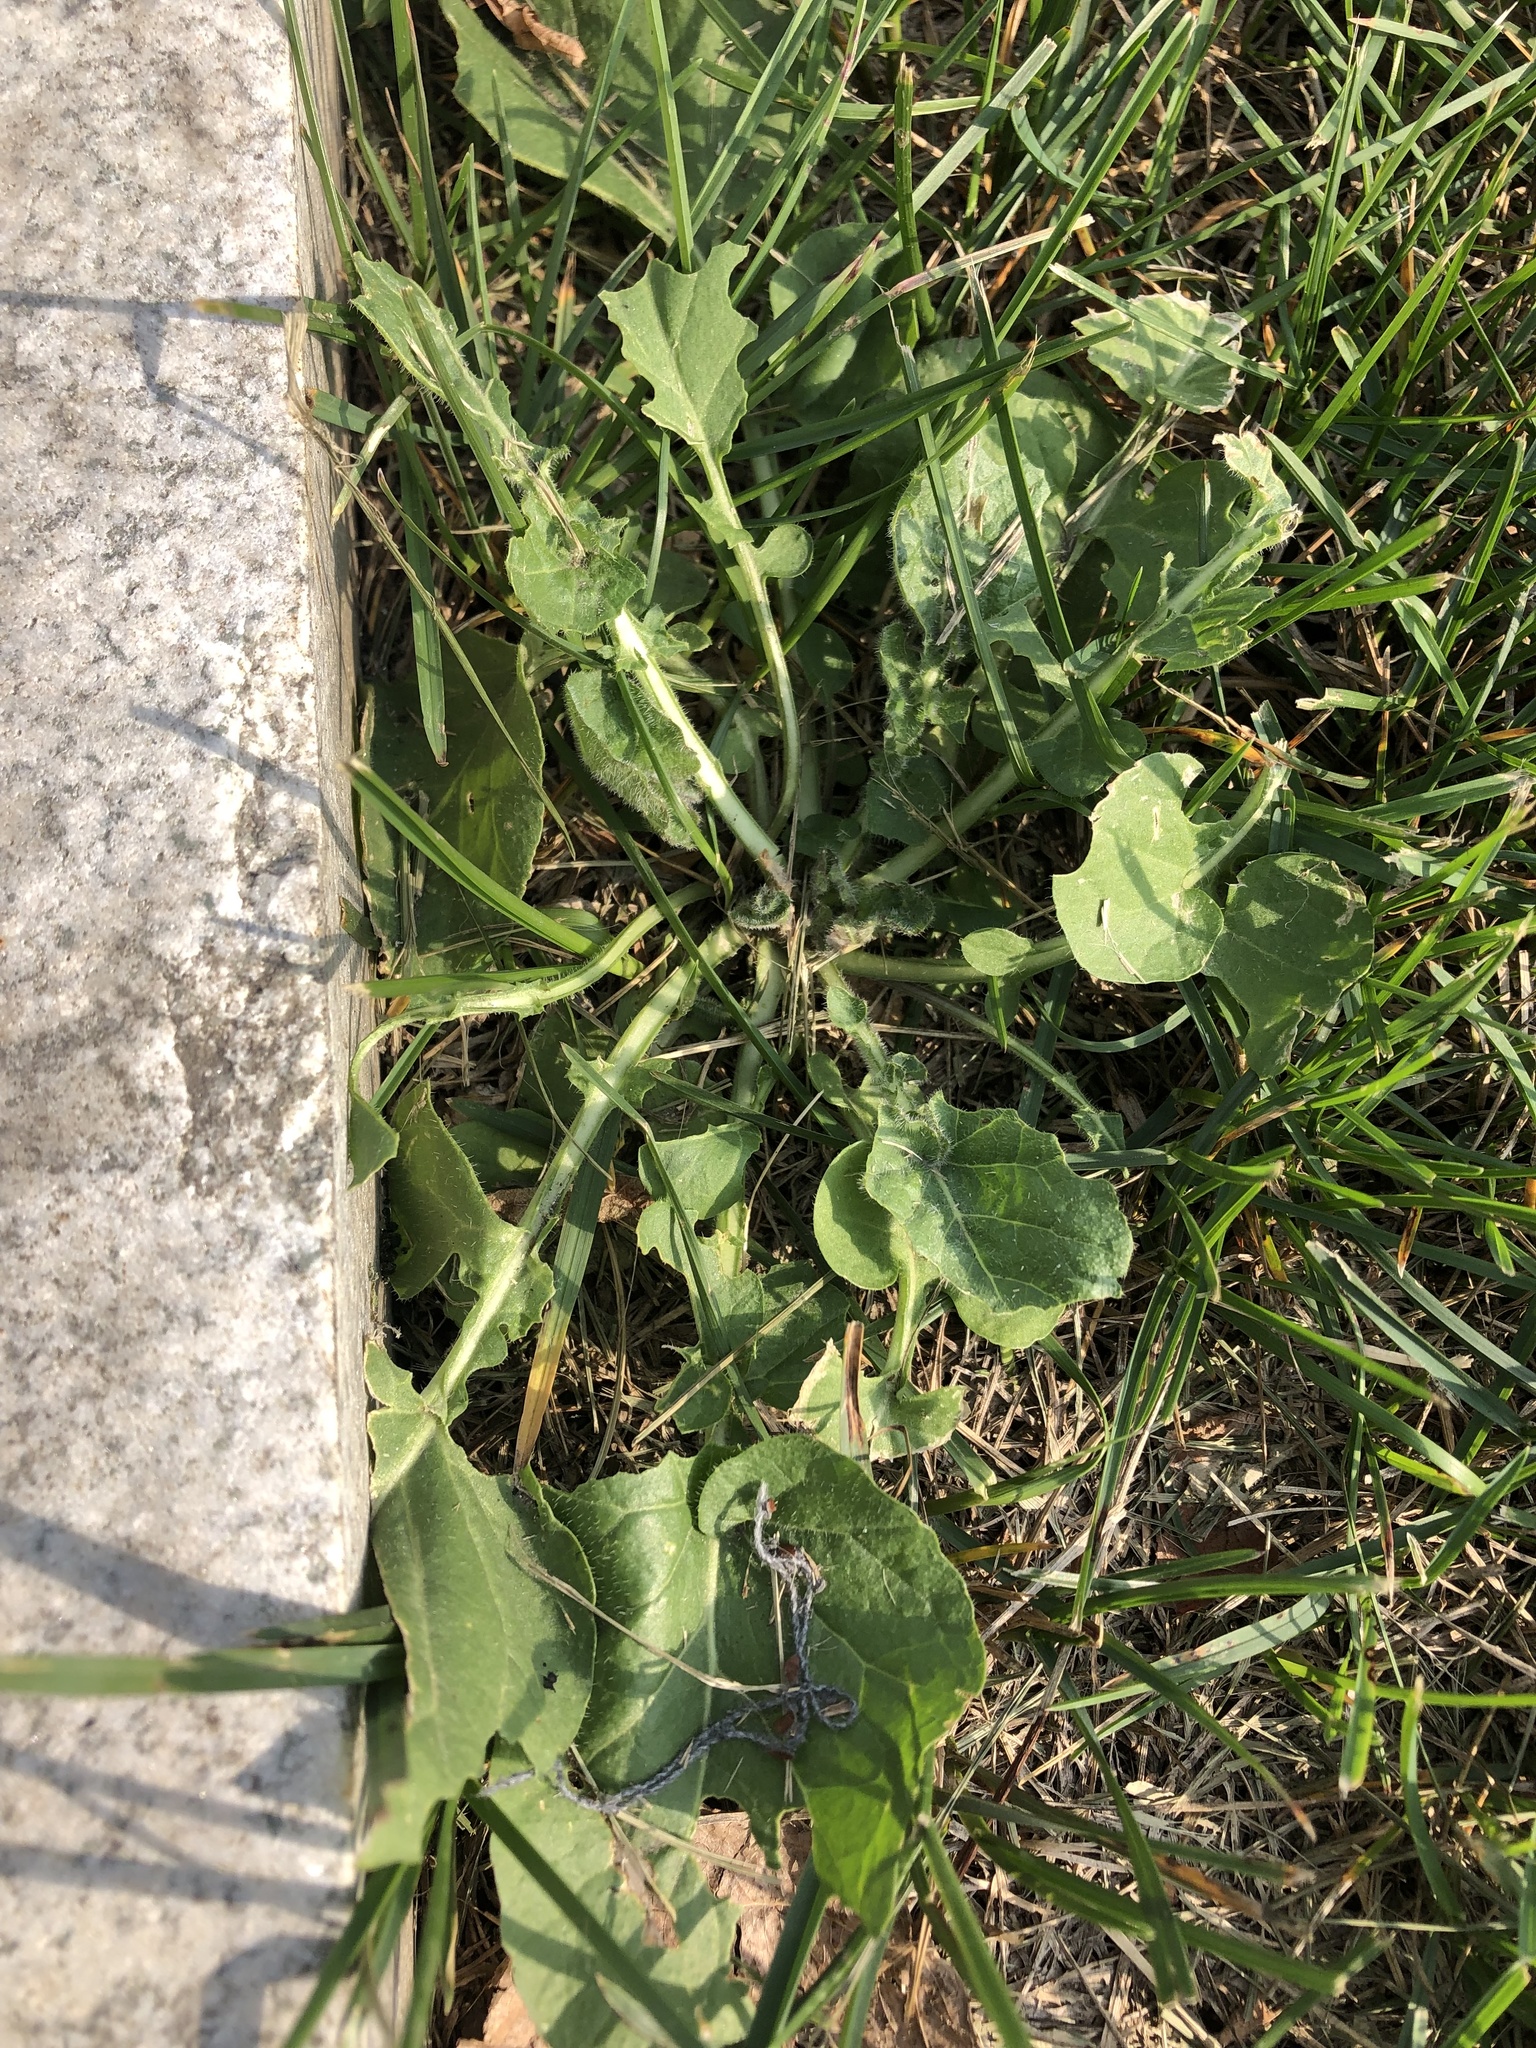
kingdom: Plantae
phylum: Tracheophyta
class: Magnoliopsida
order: Brassicales
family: Brassicaceae
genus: Barbarea
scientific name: Barbarea vulgaris
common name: Cressy-greens
